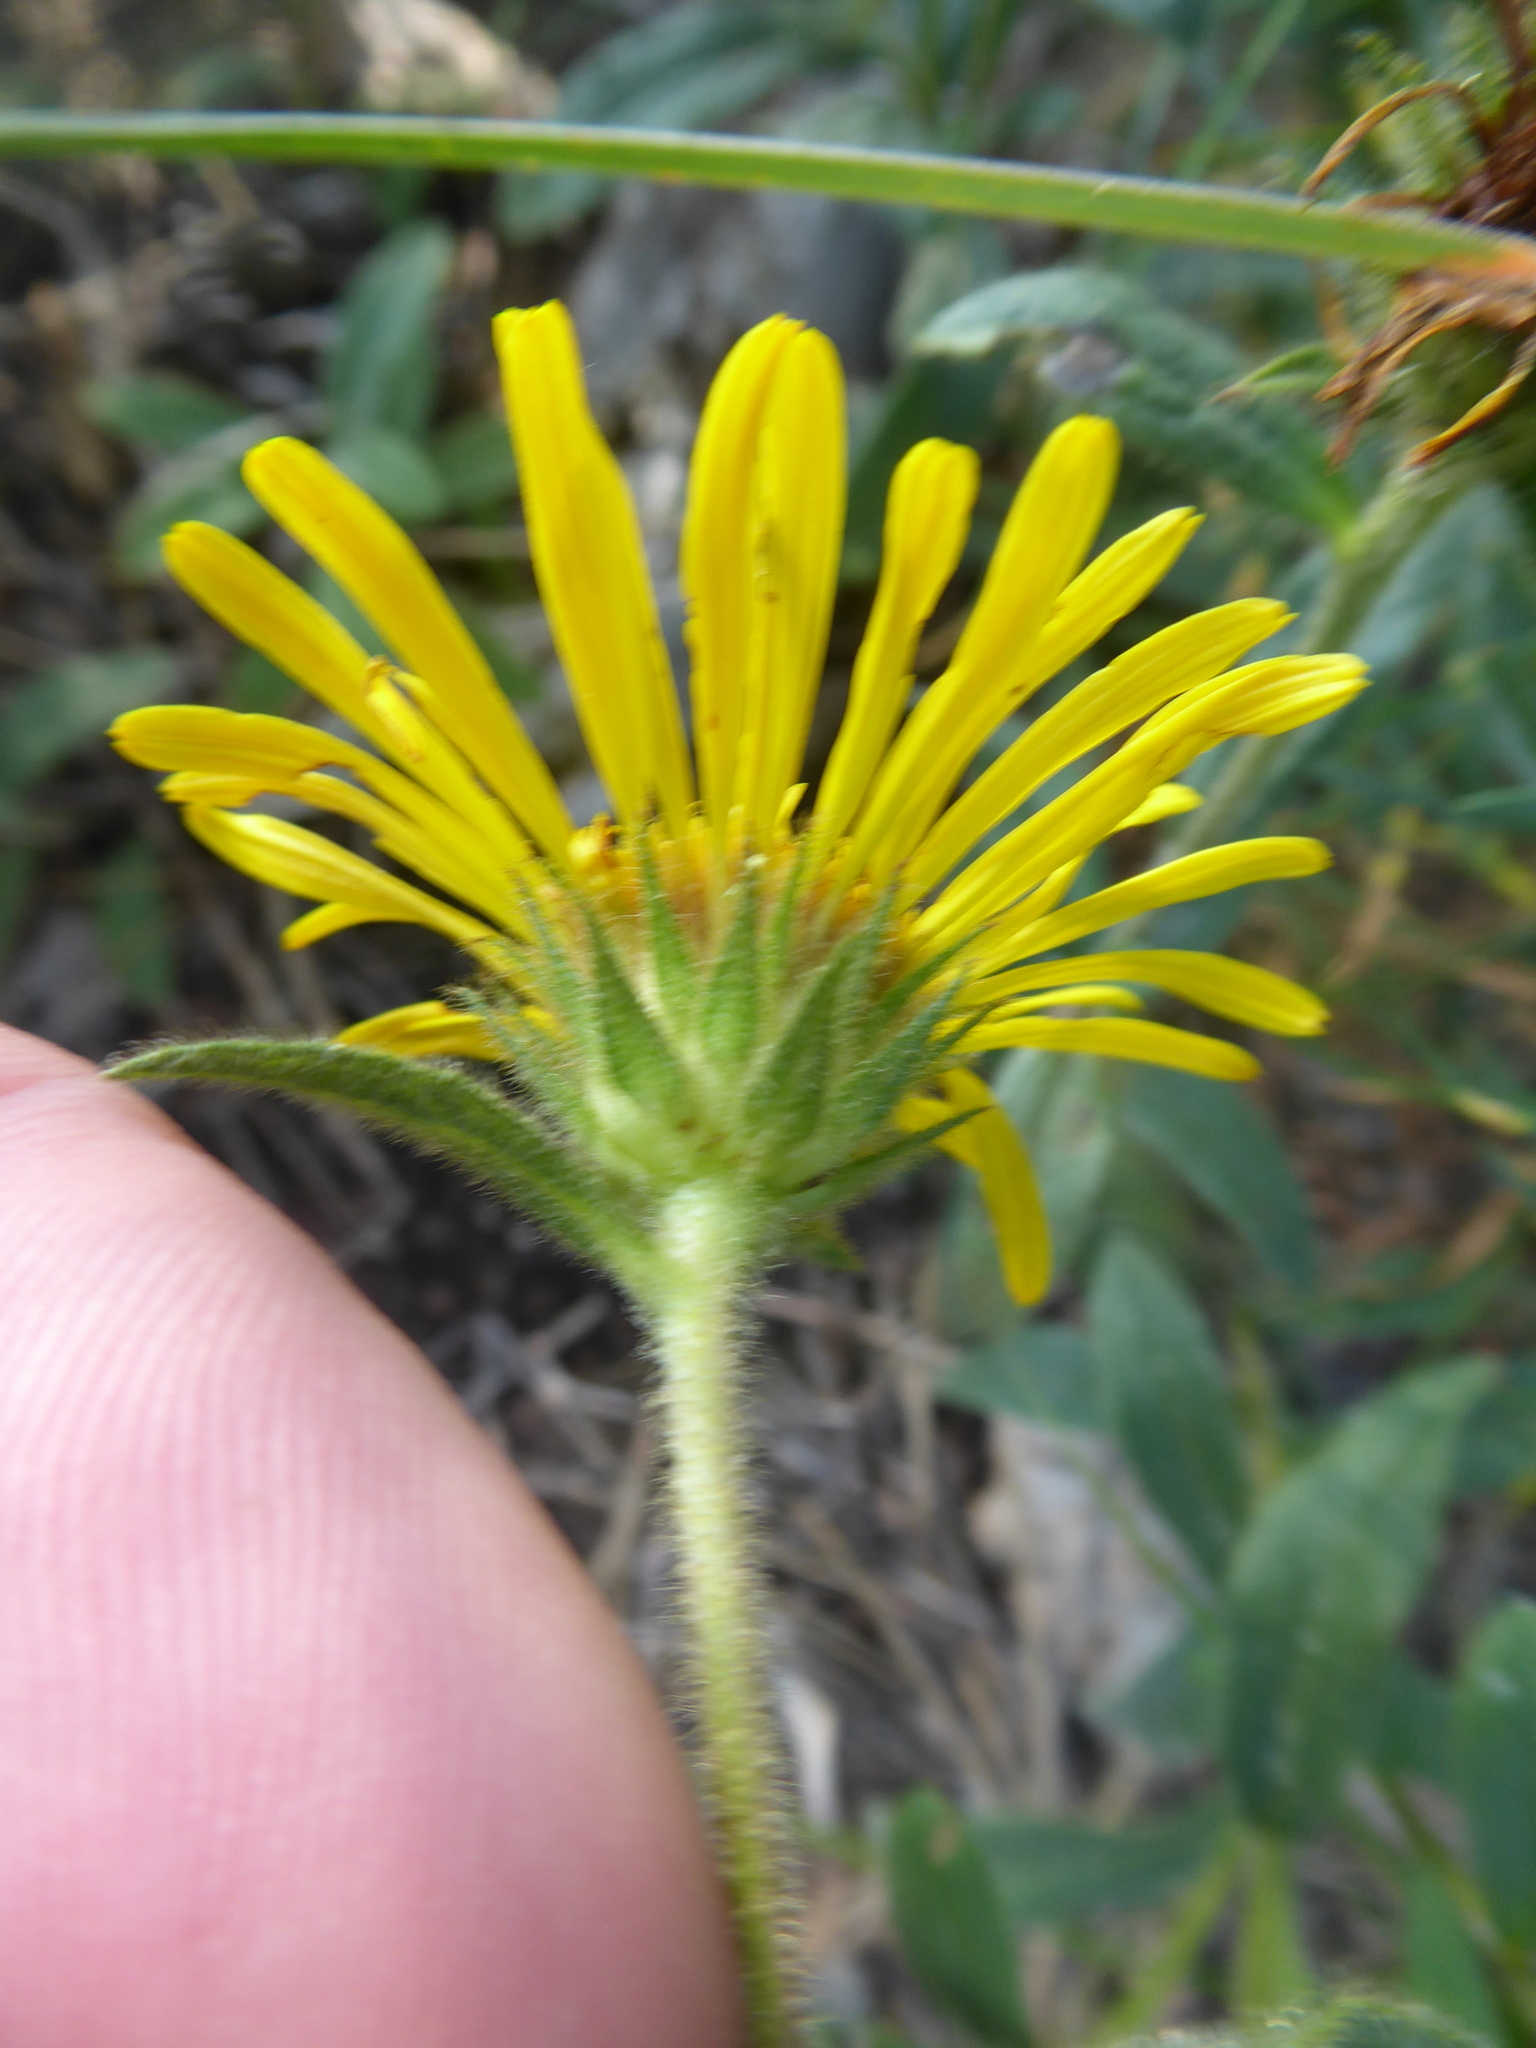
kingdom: Plantae
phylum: Tracheophyta
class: Magnoliopsida
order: Asterales
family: Asteraceae
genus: Pentanema
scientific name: Pentanema hirtum
